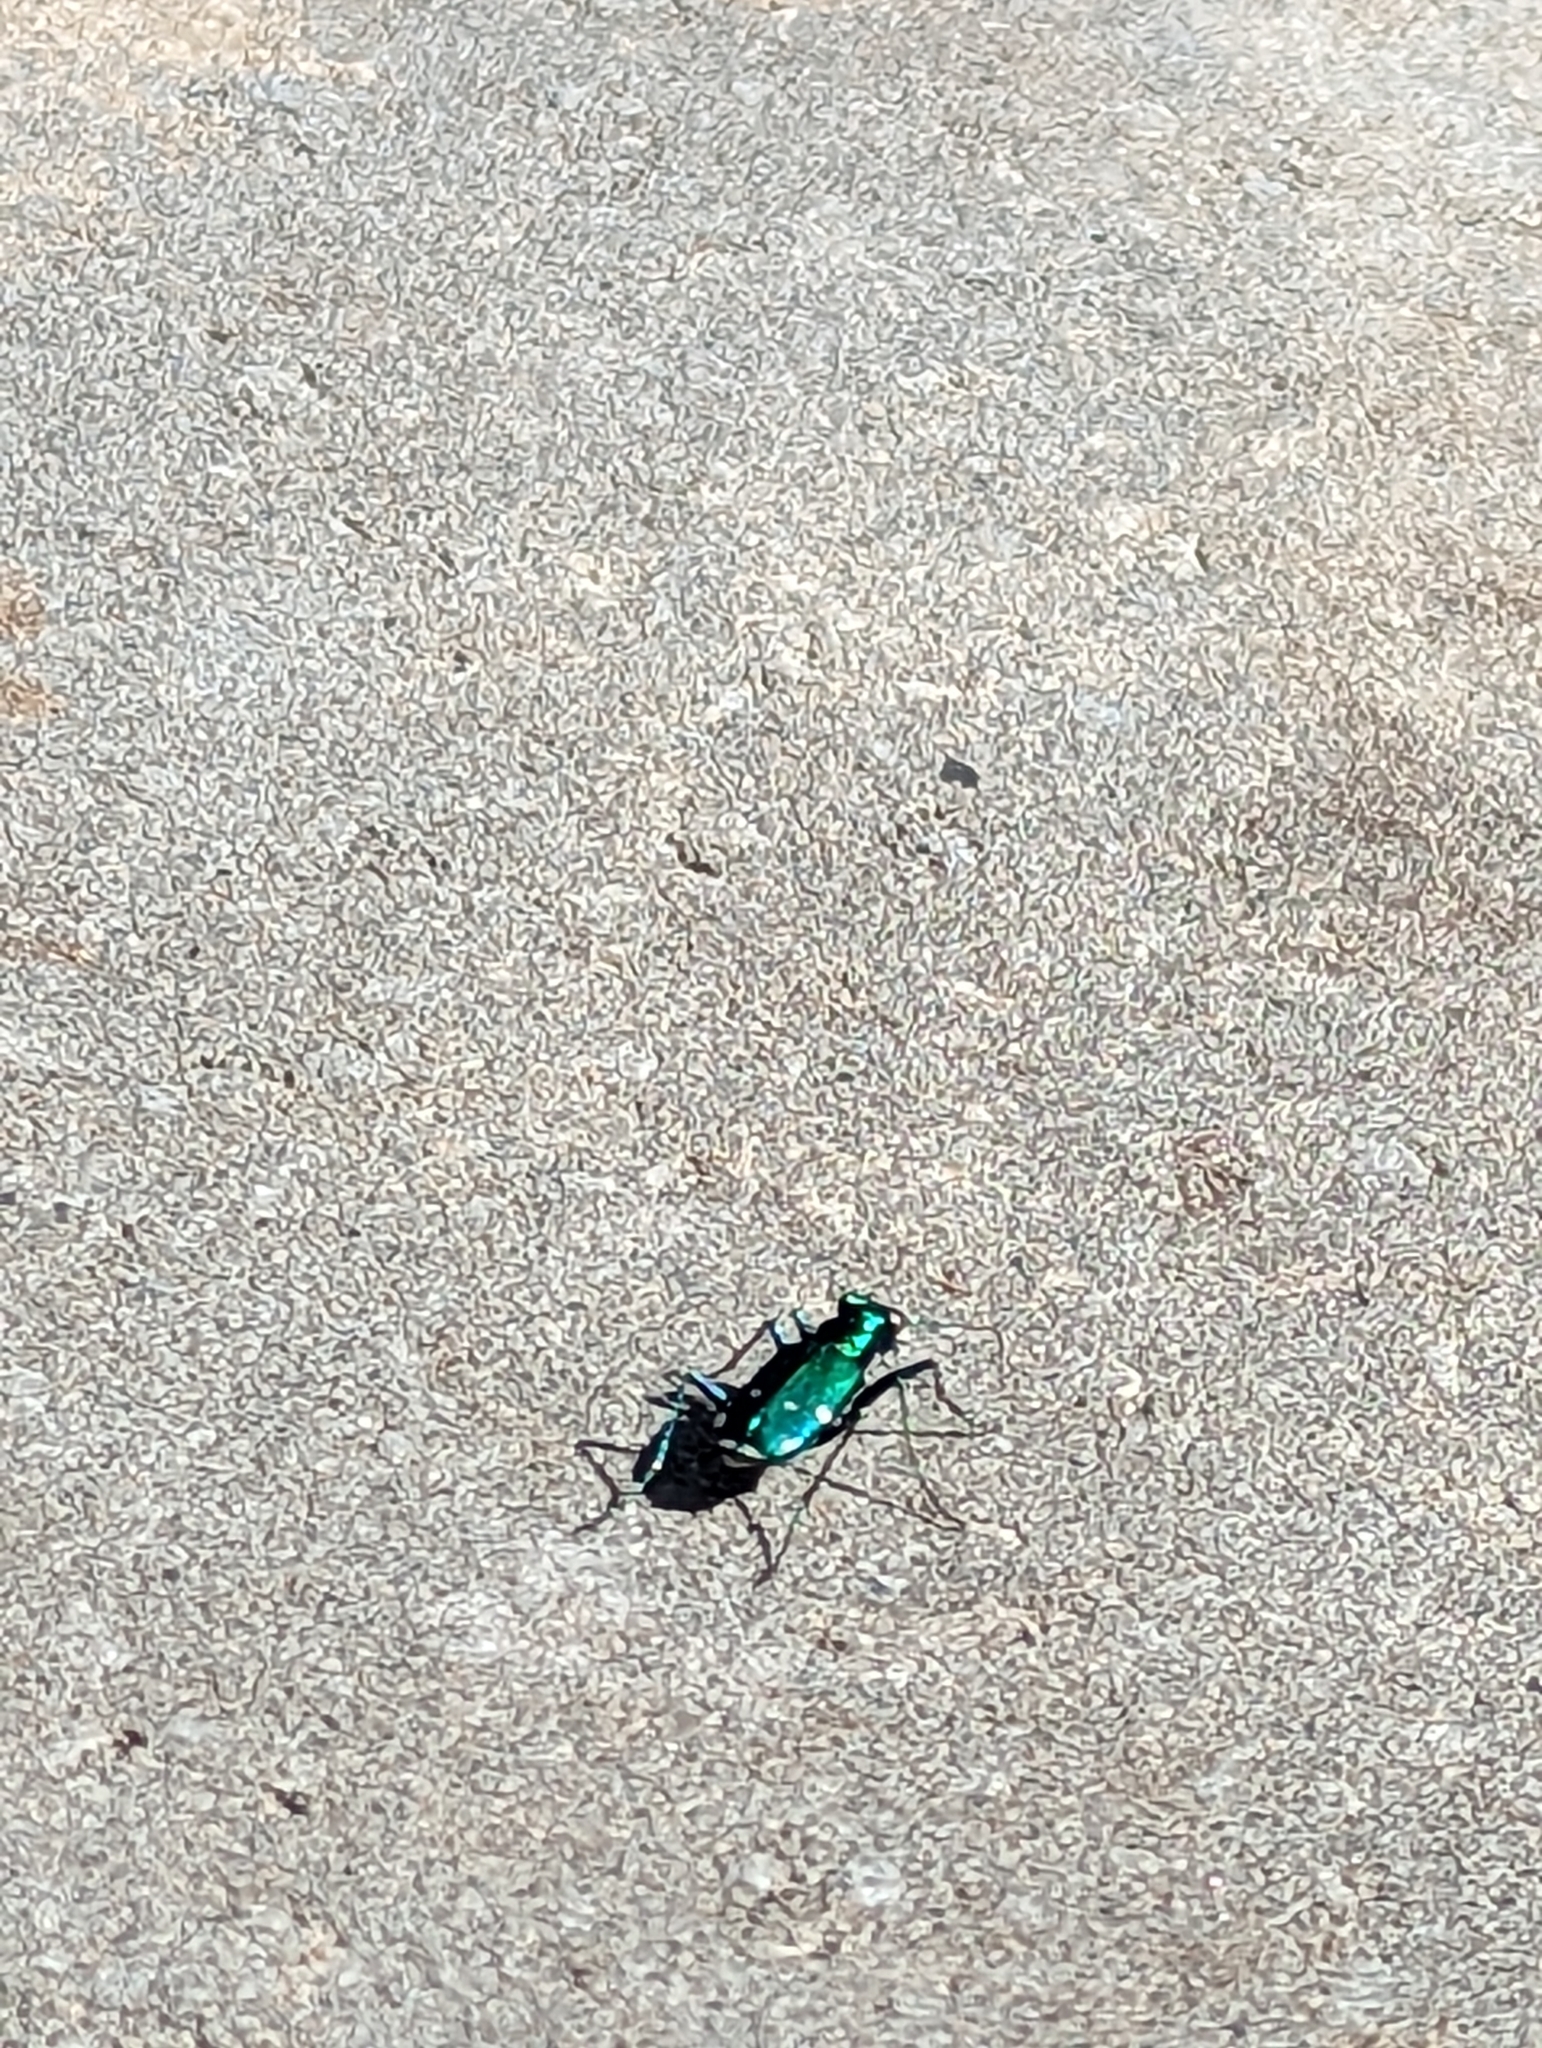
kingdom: Animalia
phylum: Arthropoda
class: Insecta
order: Coleoptera
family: Carabidae
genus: Cicindela
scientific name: Cicindela sexguttata
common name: Six-spotted tiger beetle
